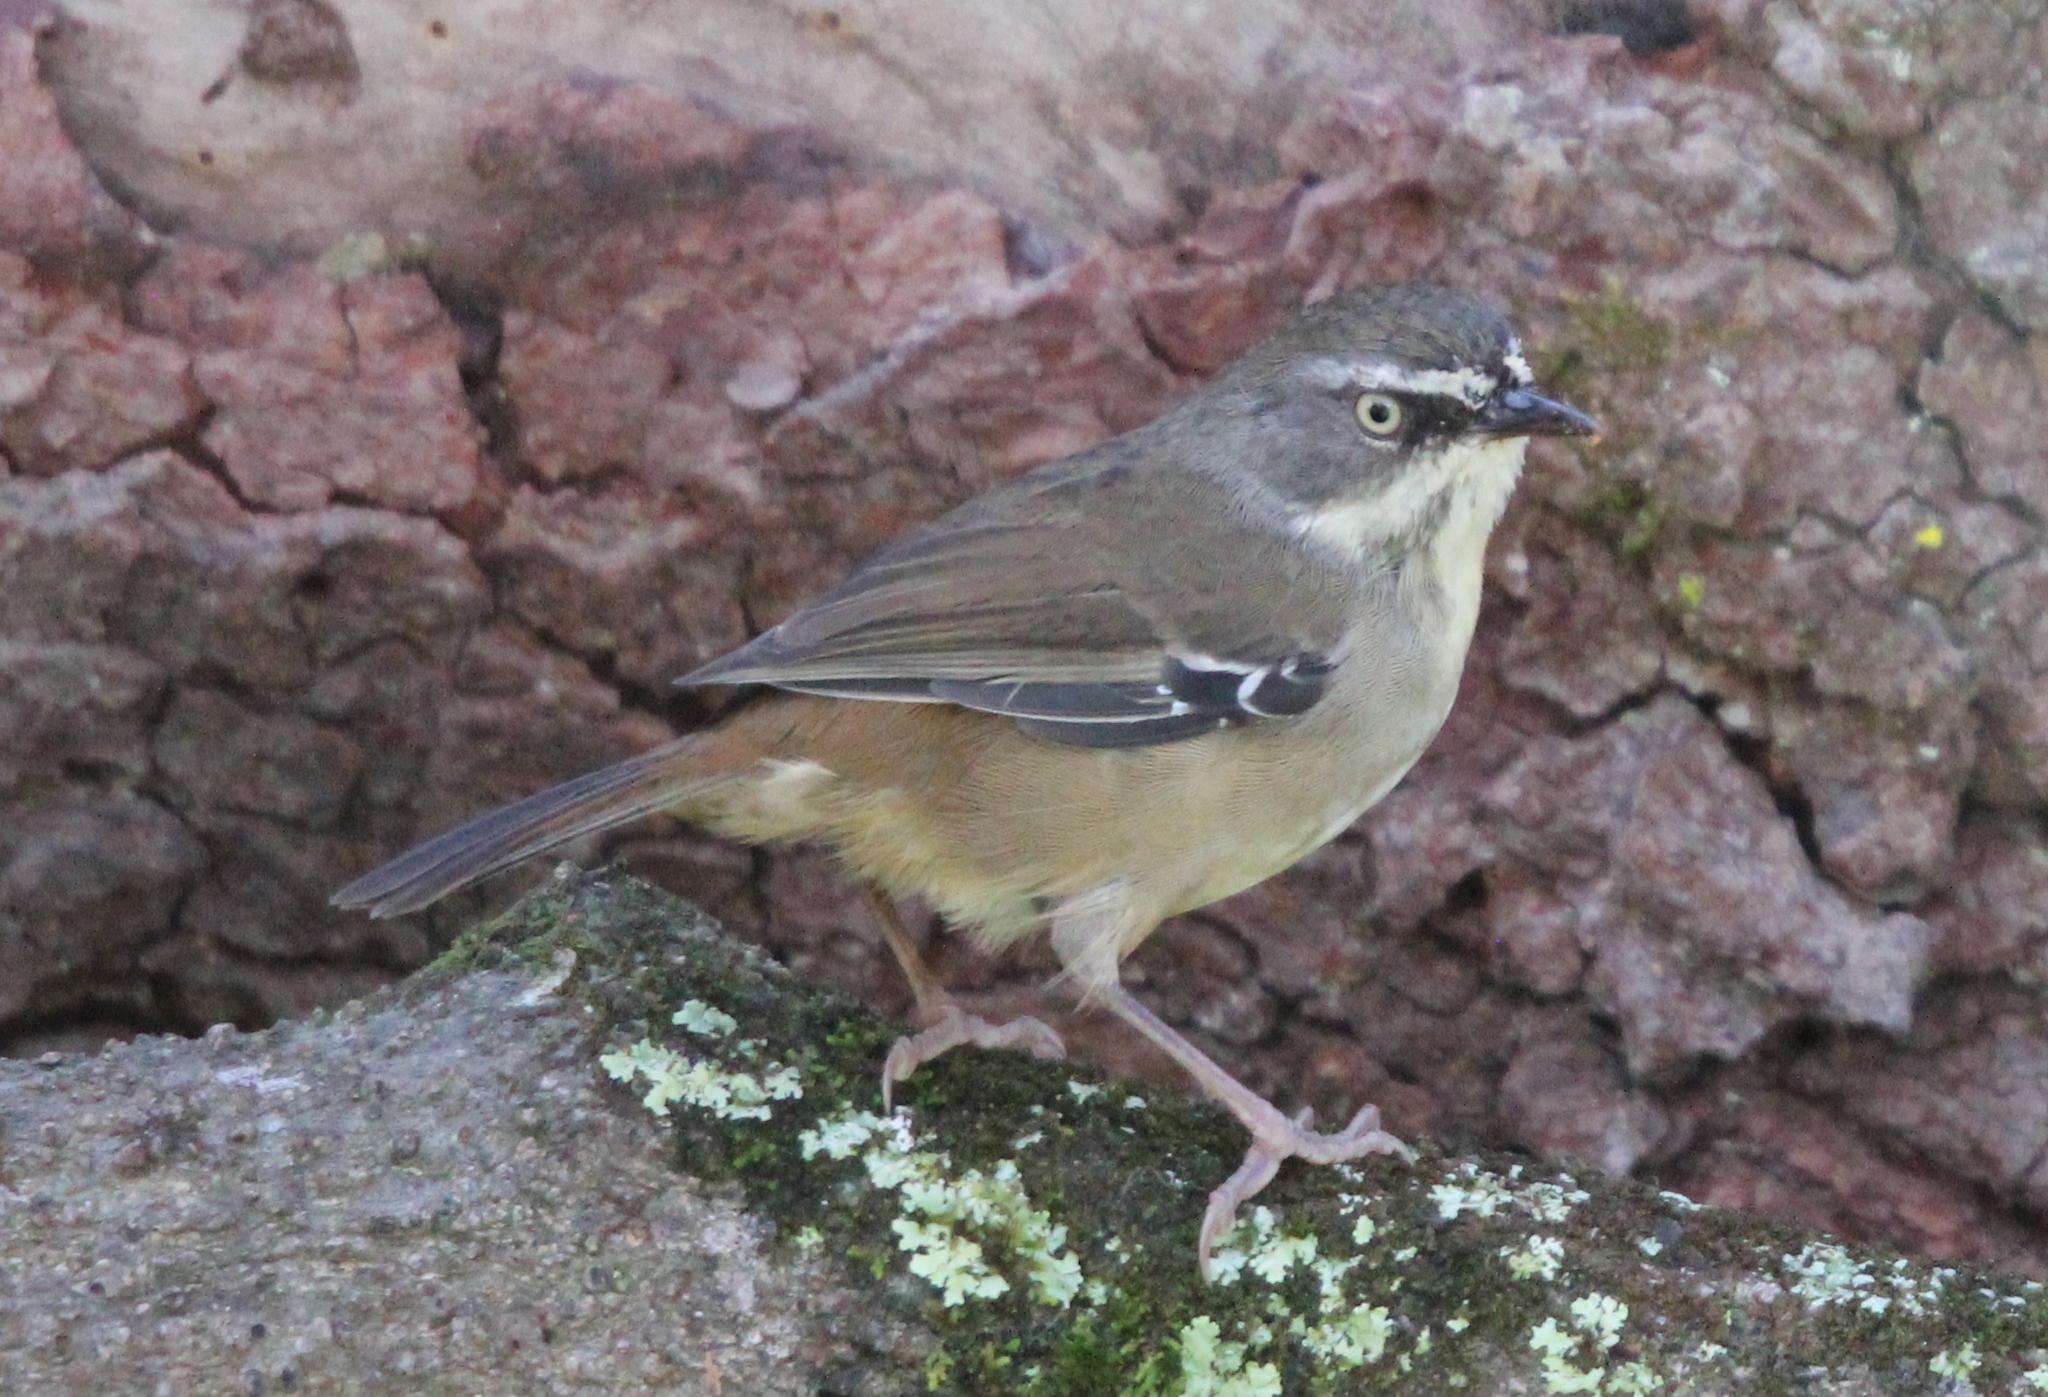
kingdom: Animalia
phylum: Chordata
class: Aves
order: Passeriformes
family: Acanthizidae
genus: Sericornis
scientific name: Sericornis frontalis
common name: White-browed scrubwren
